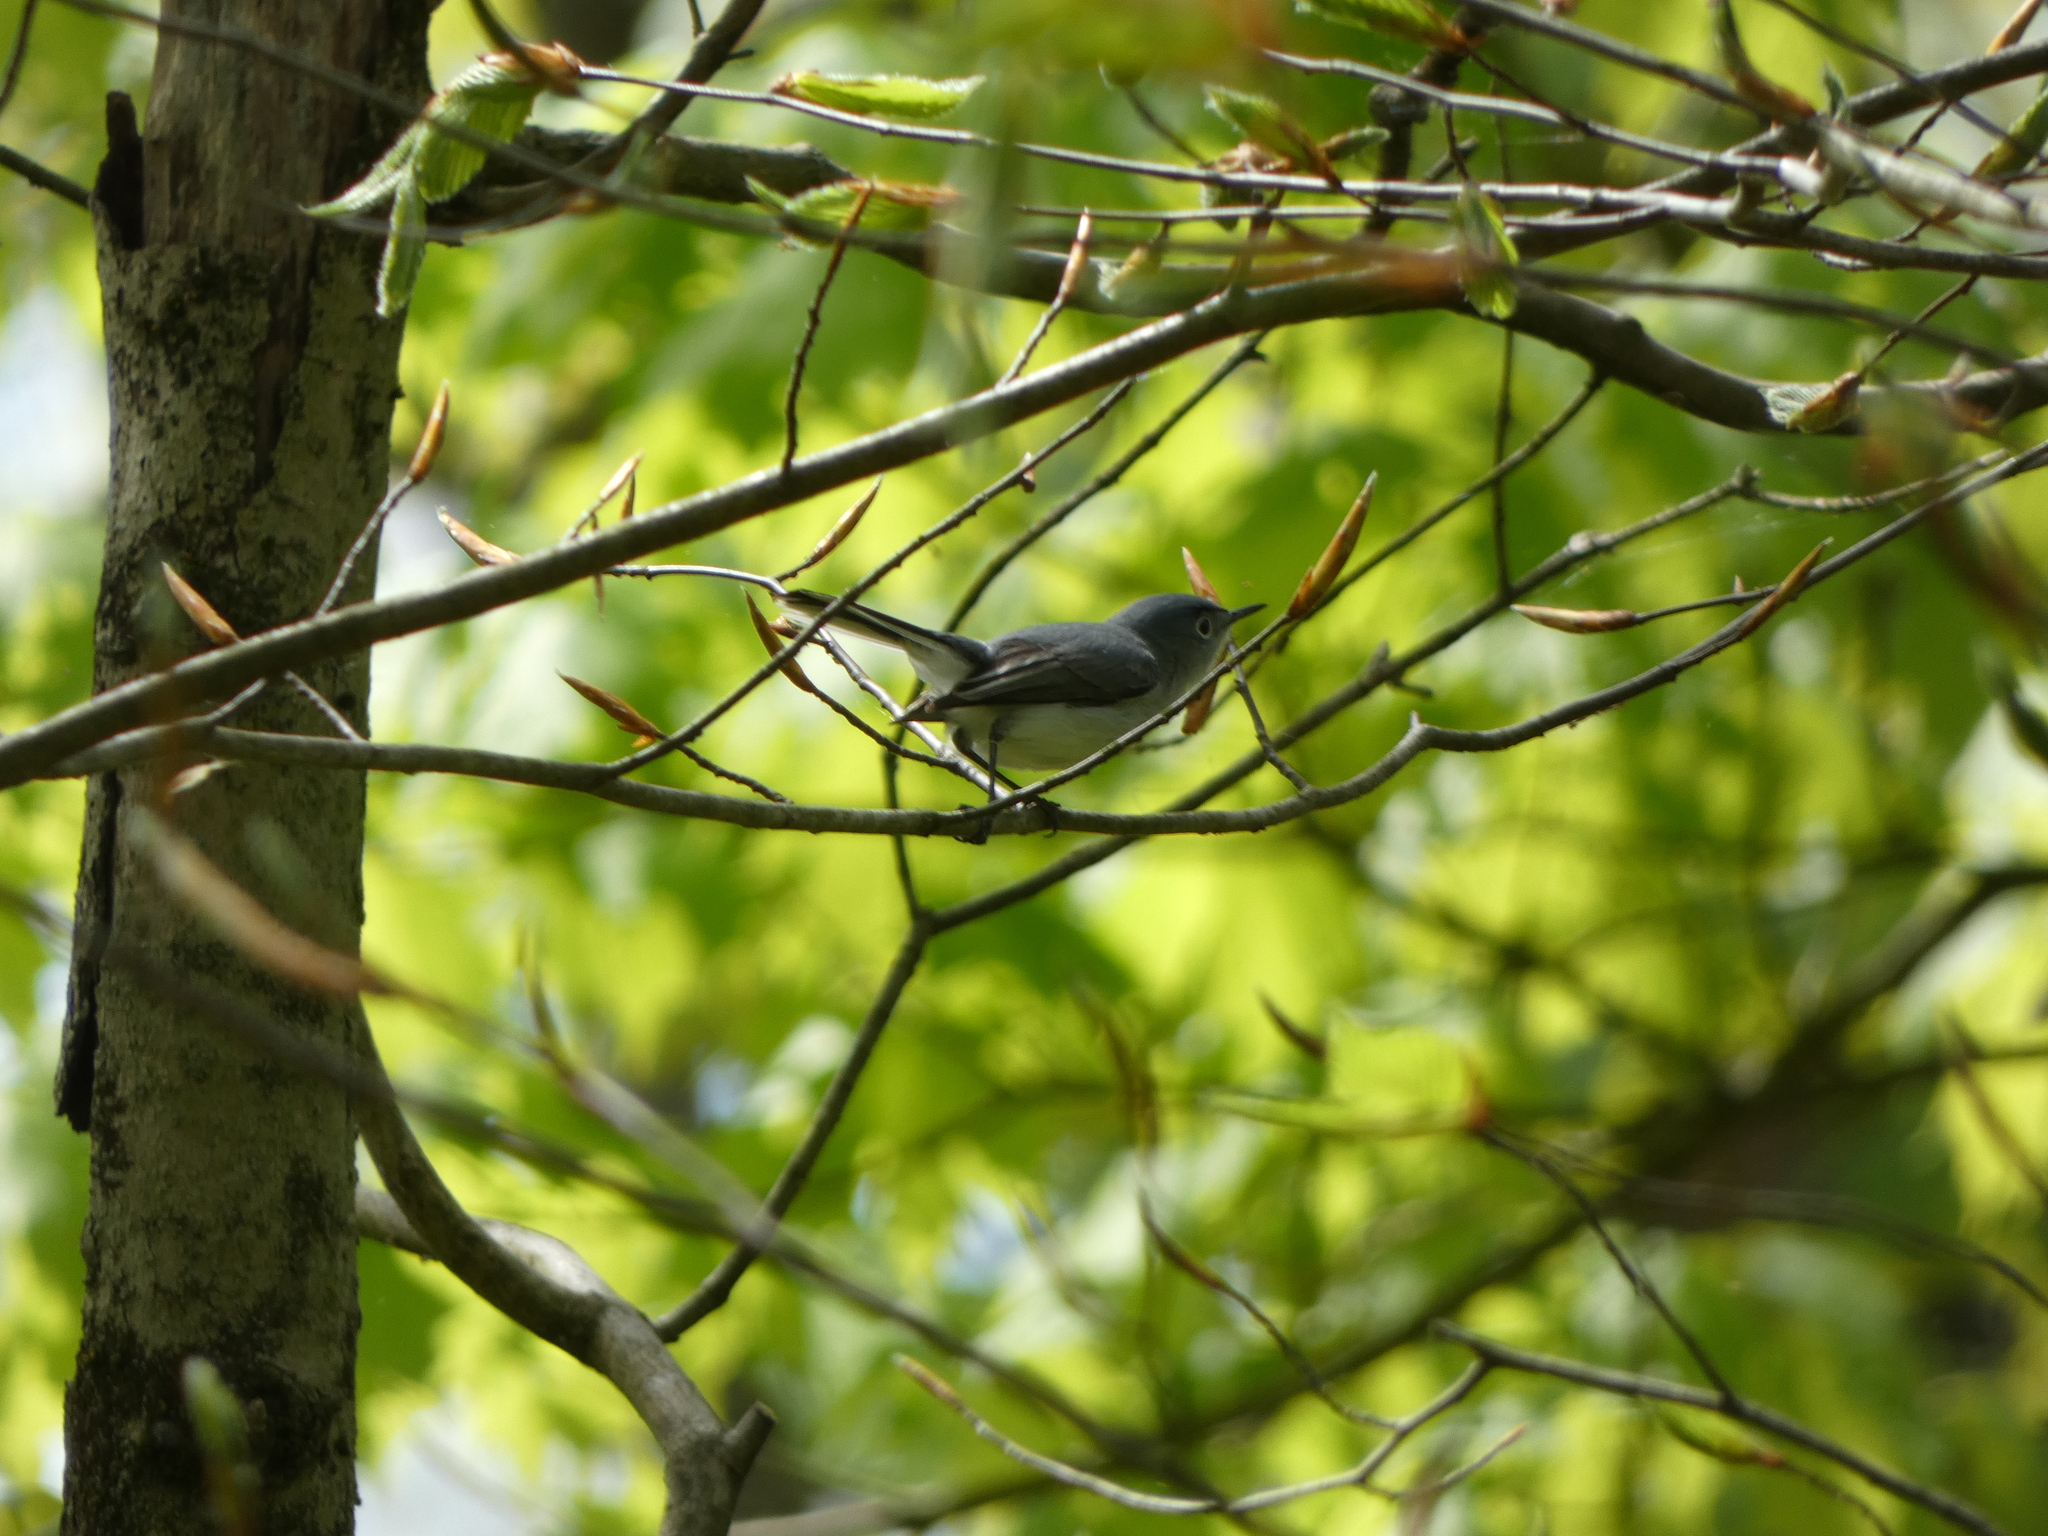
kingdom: Animalia
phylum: Chordata
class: Aves
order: Passeriformes
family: Polioptilidae
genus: Polioptila
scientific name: Polioptila caerulea
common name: Blue-gray gnatcatcher
